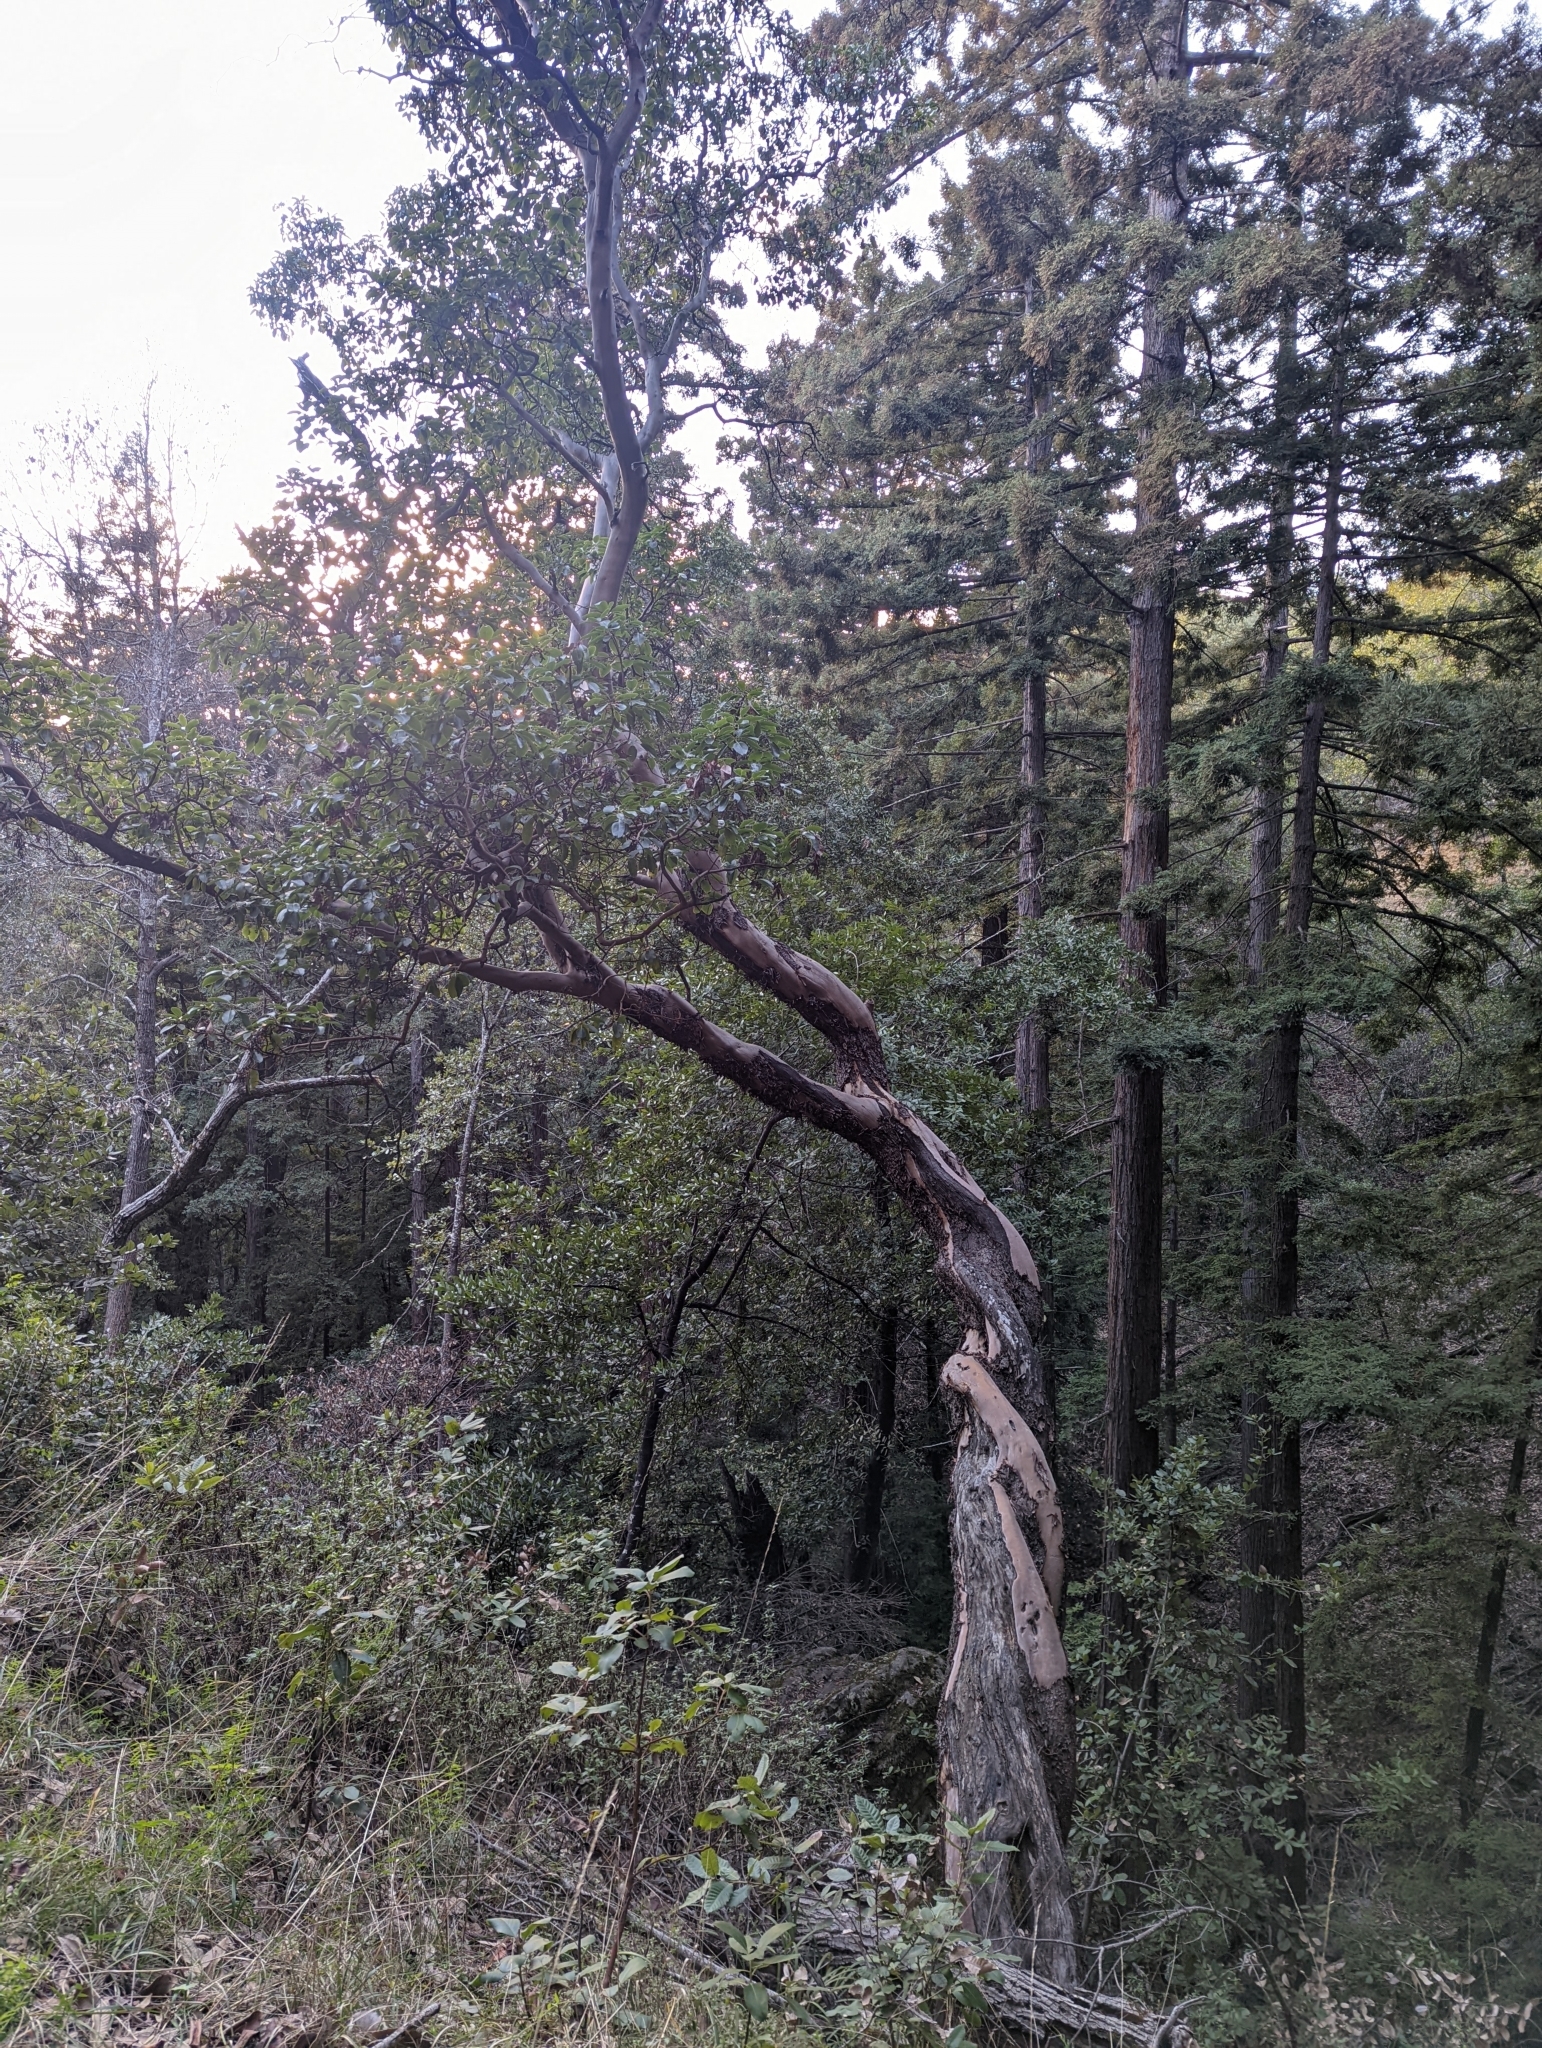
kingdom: Plantae
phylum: Tracheophyta
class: Magnoliopsida
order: Ericales
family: Ericaceae
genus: Arbutus
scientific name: Arbutus menziesii
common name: Pacific madrone
